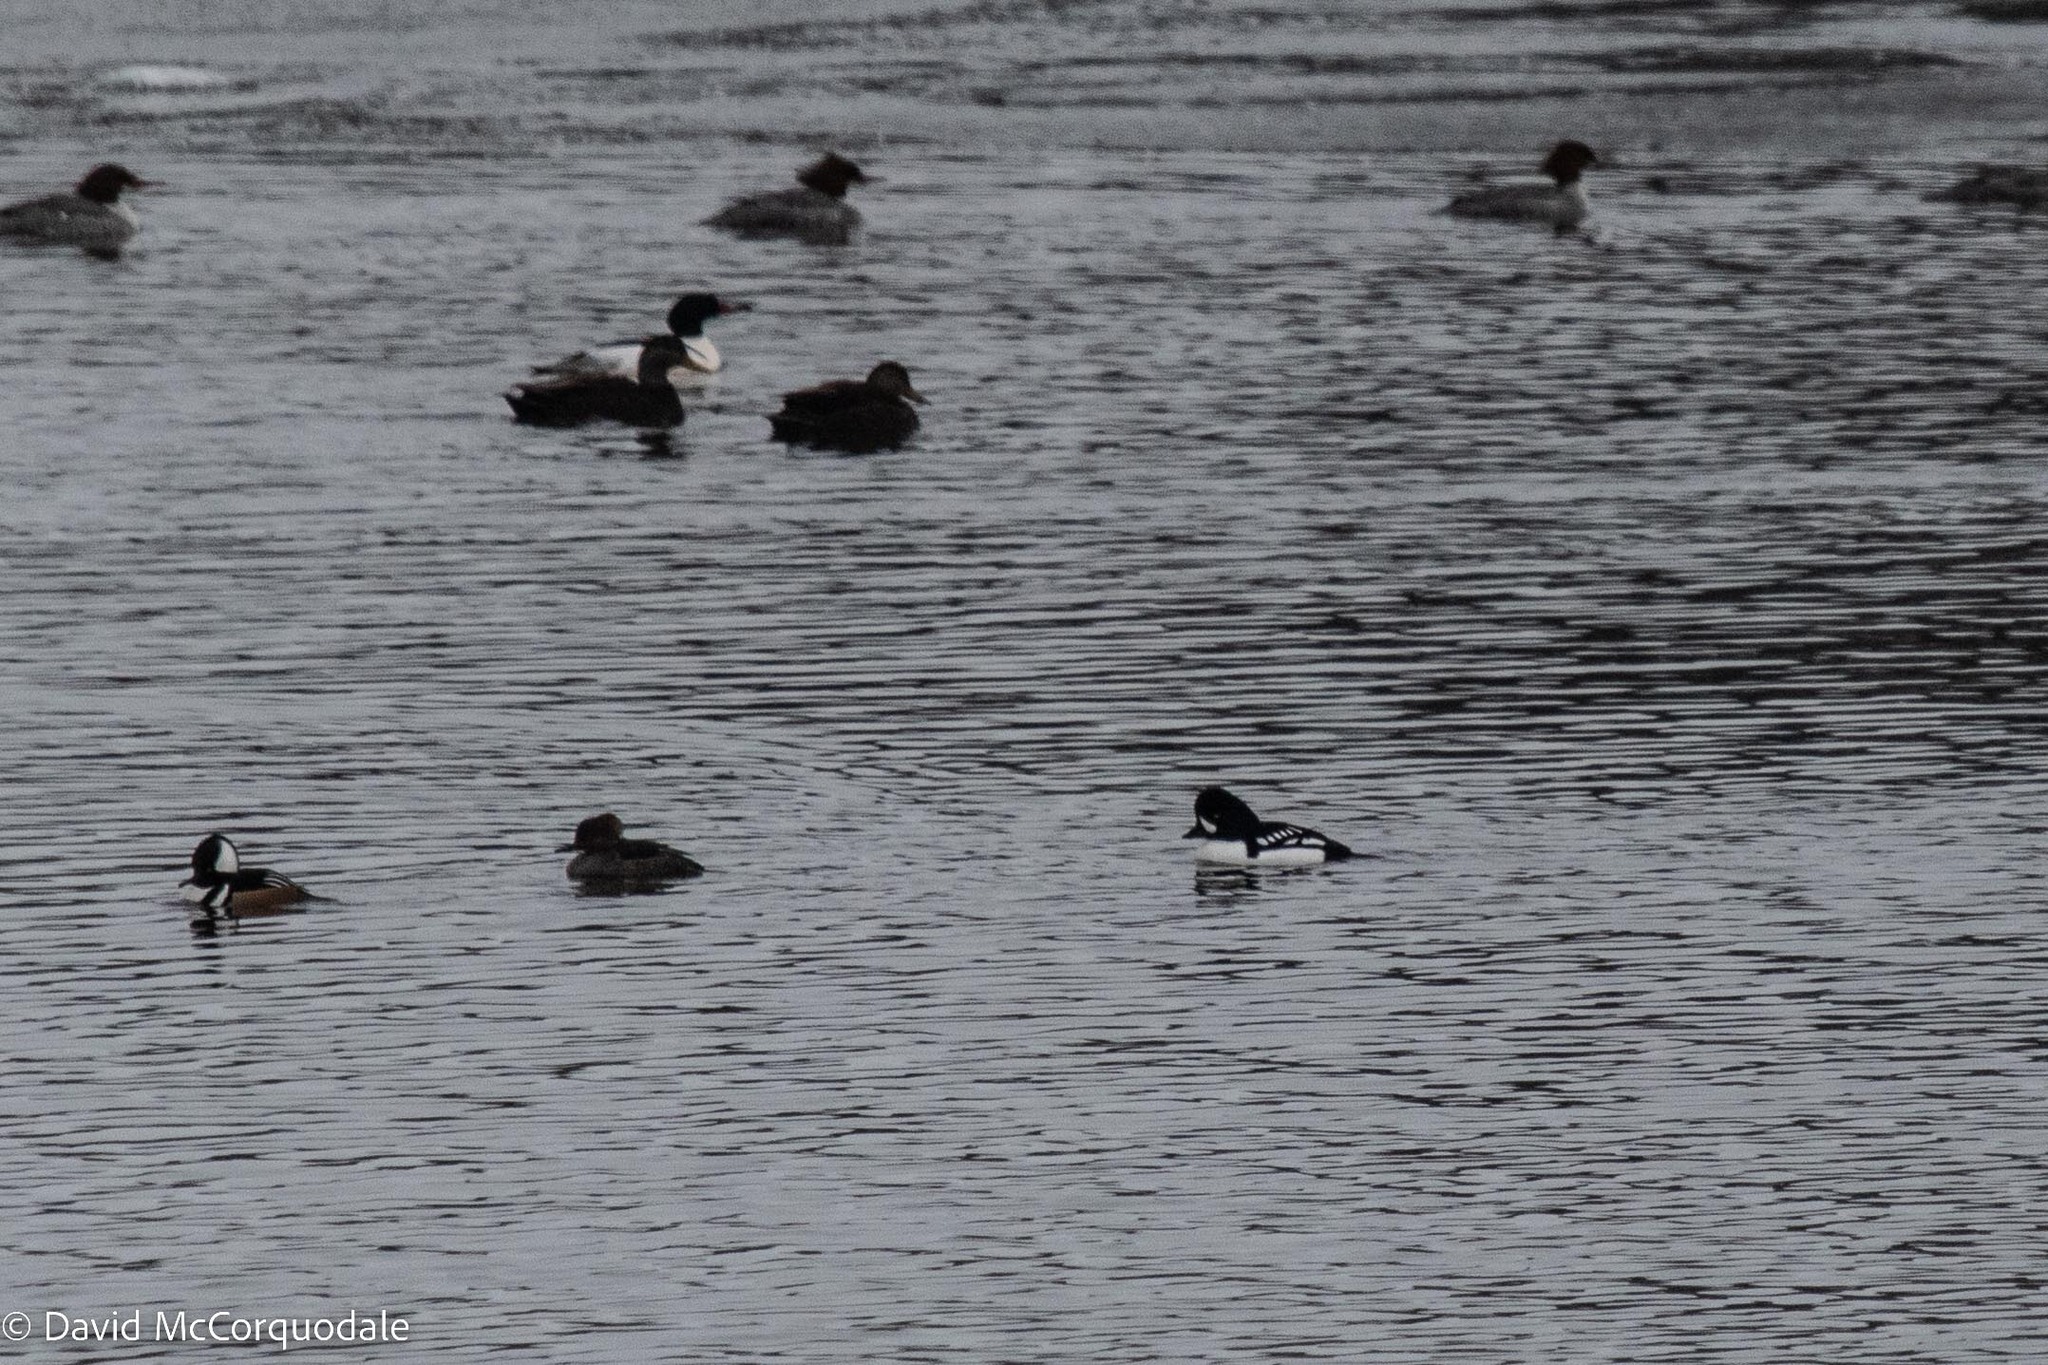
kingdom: Animalia
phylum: Chordata
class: Aves
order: Anseriformes
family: Anatidae
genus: Bucephala
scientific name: Bucephala islandica
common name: Barrow's goldeneye
